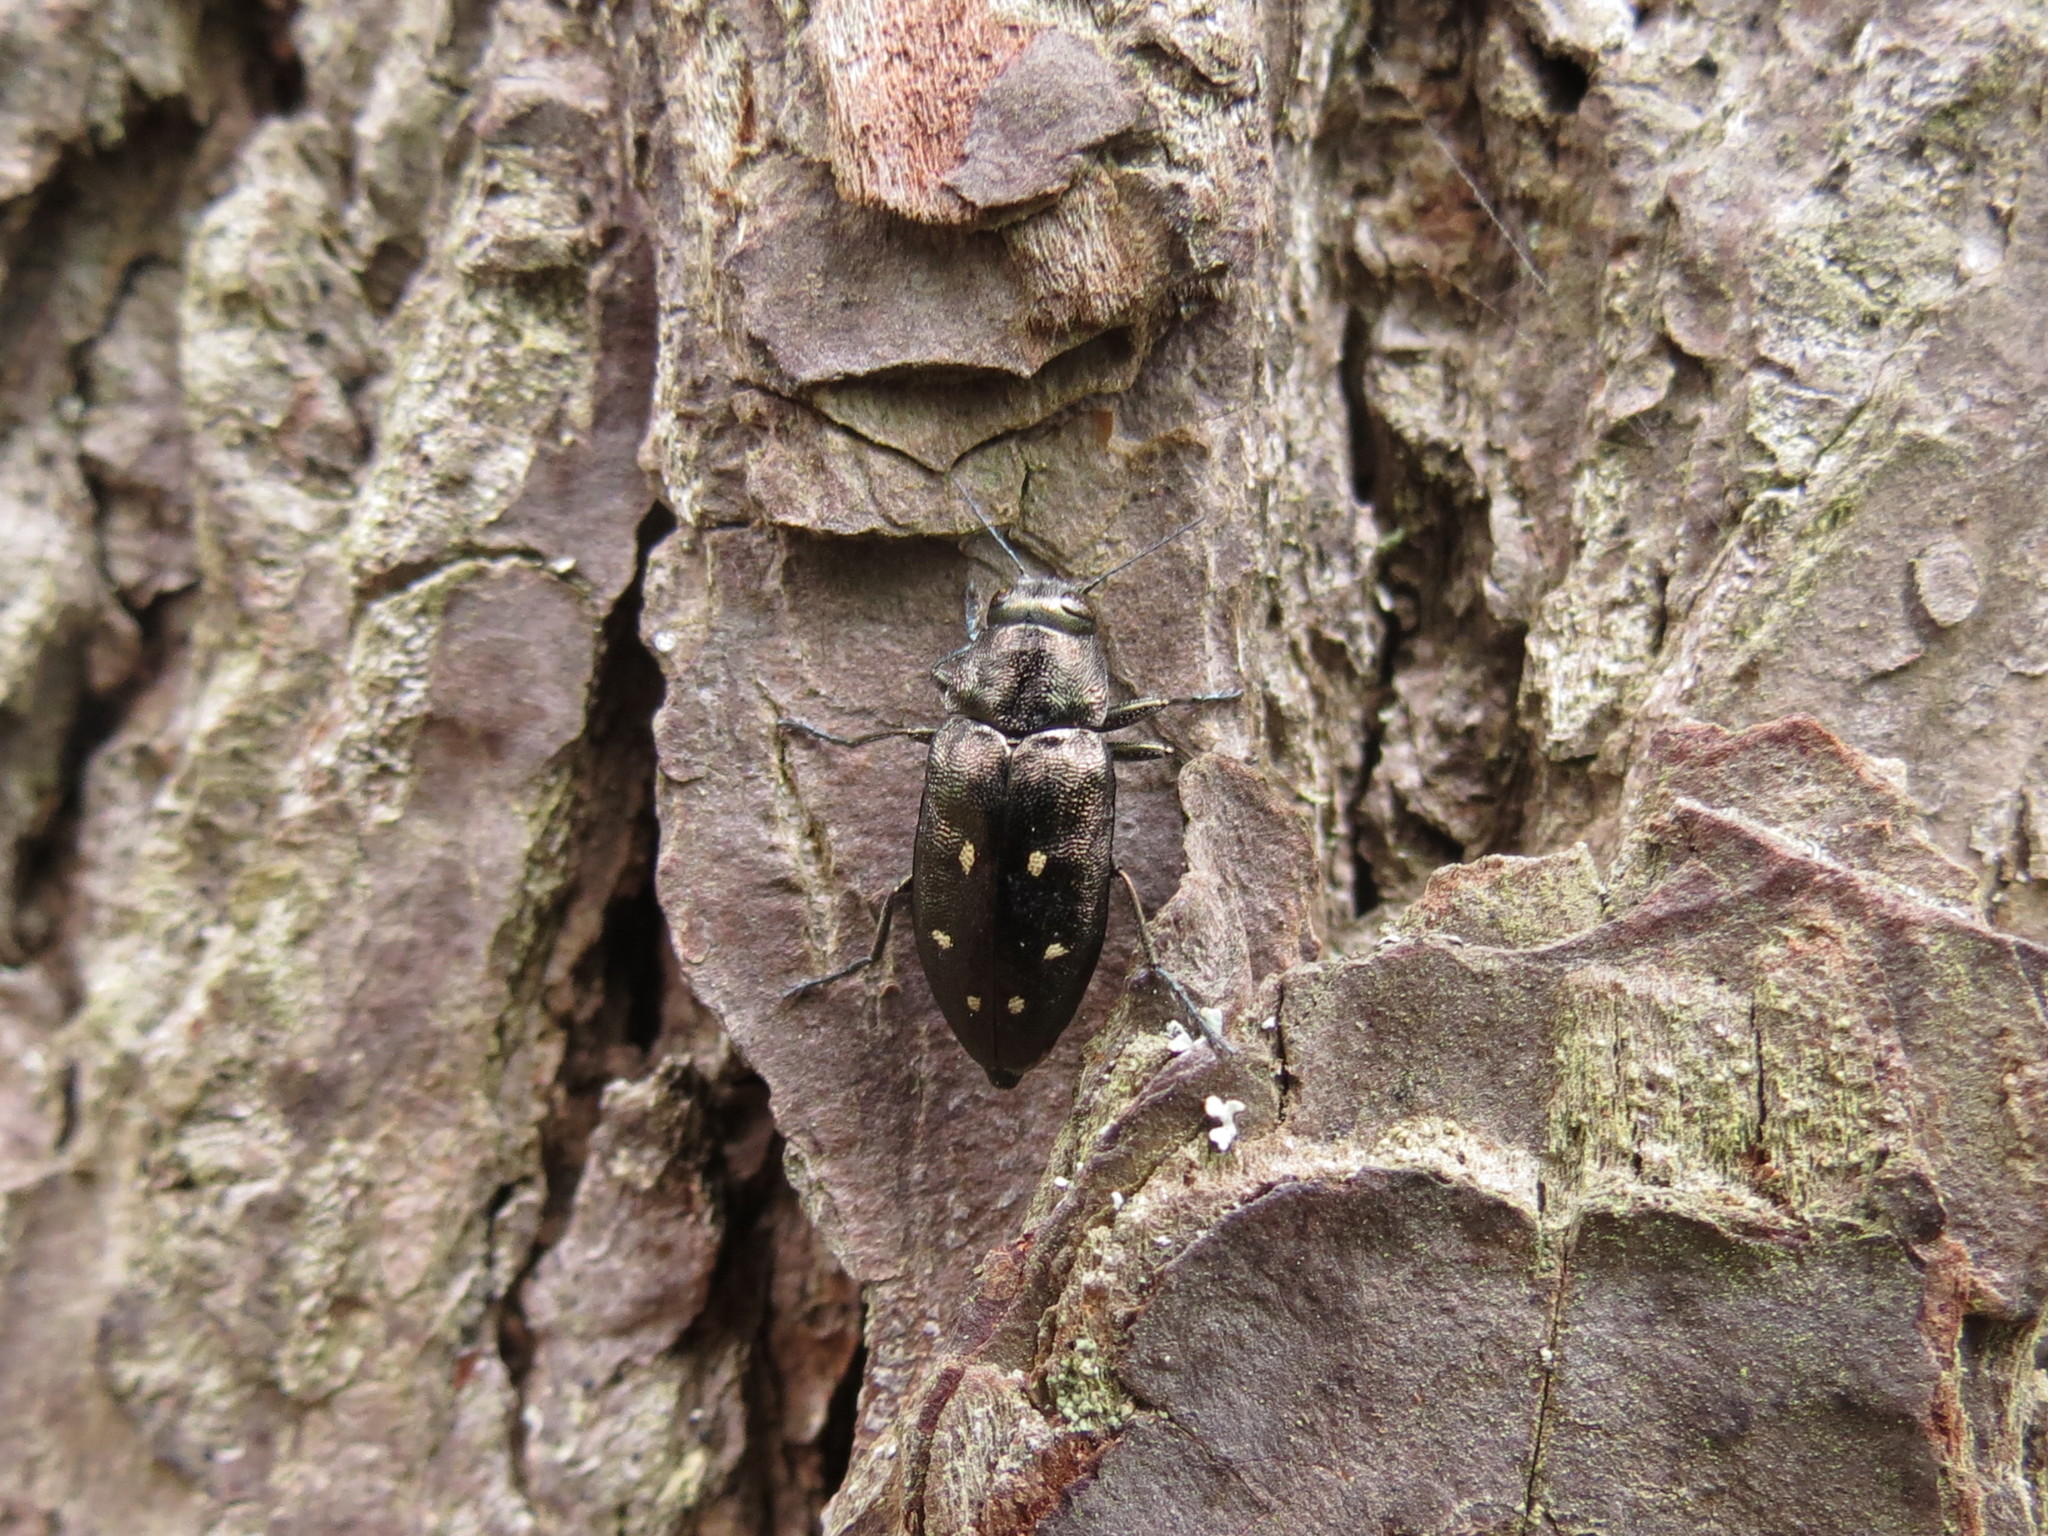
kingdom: Animalia
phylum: Arthropoda
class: Insecta
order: Coleoptera
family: Buprestidae
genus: Phaenops
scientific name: Phaenops fulvoguttata
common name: Hemlock borer
